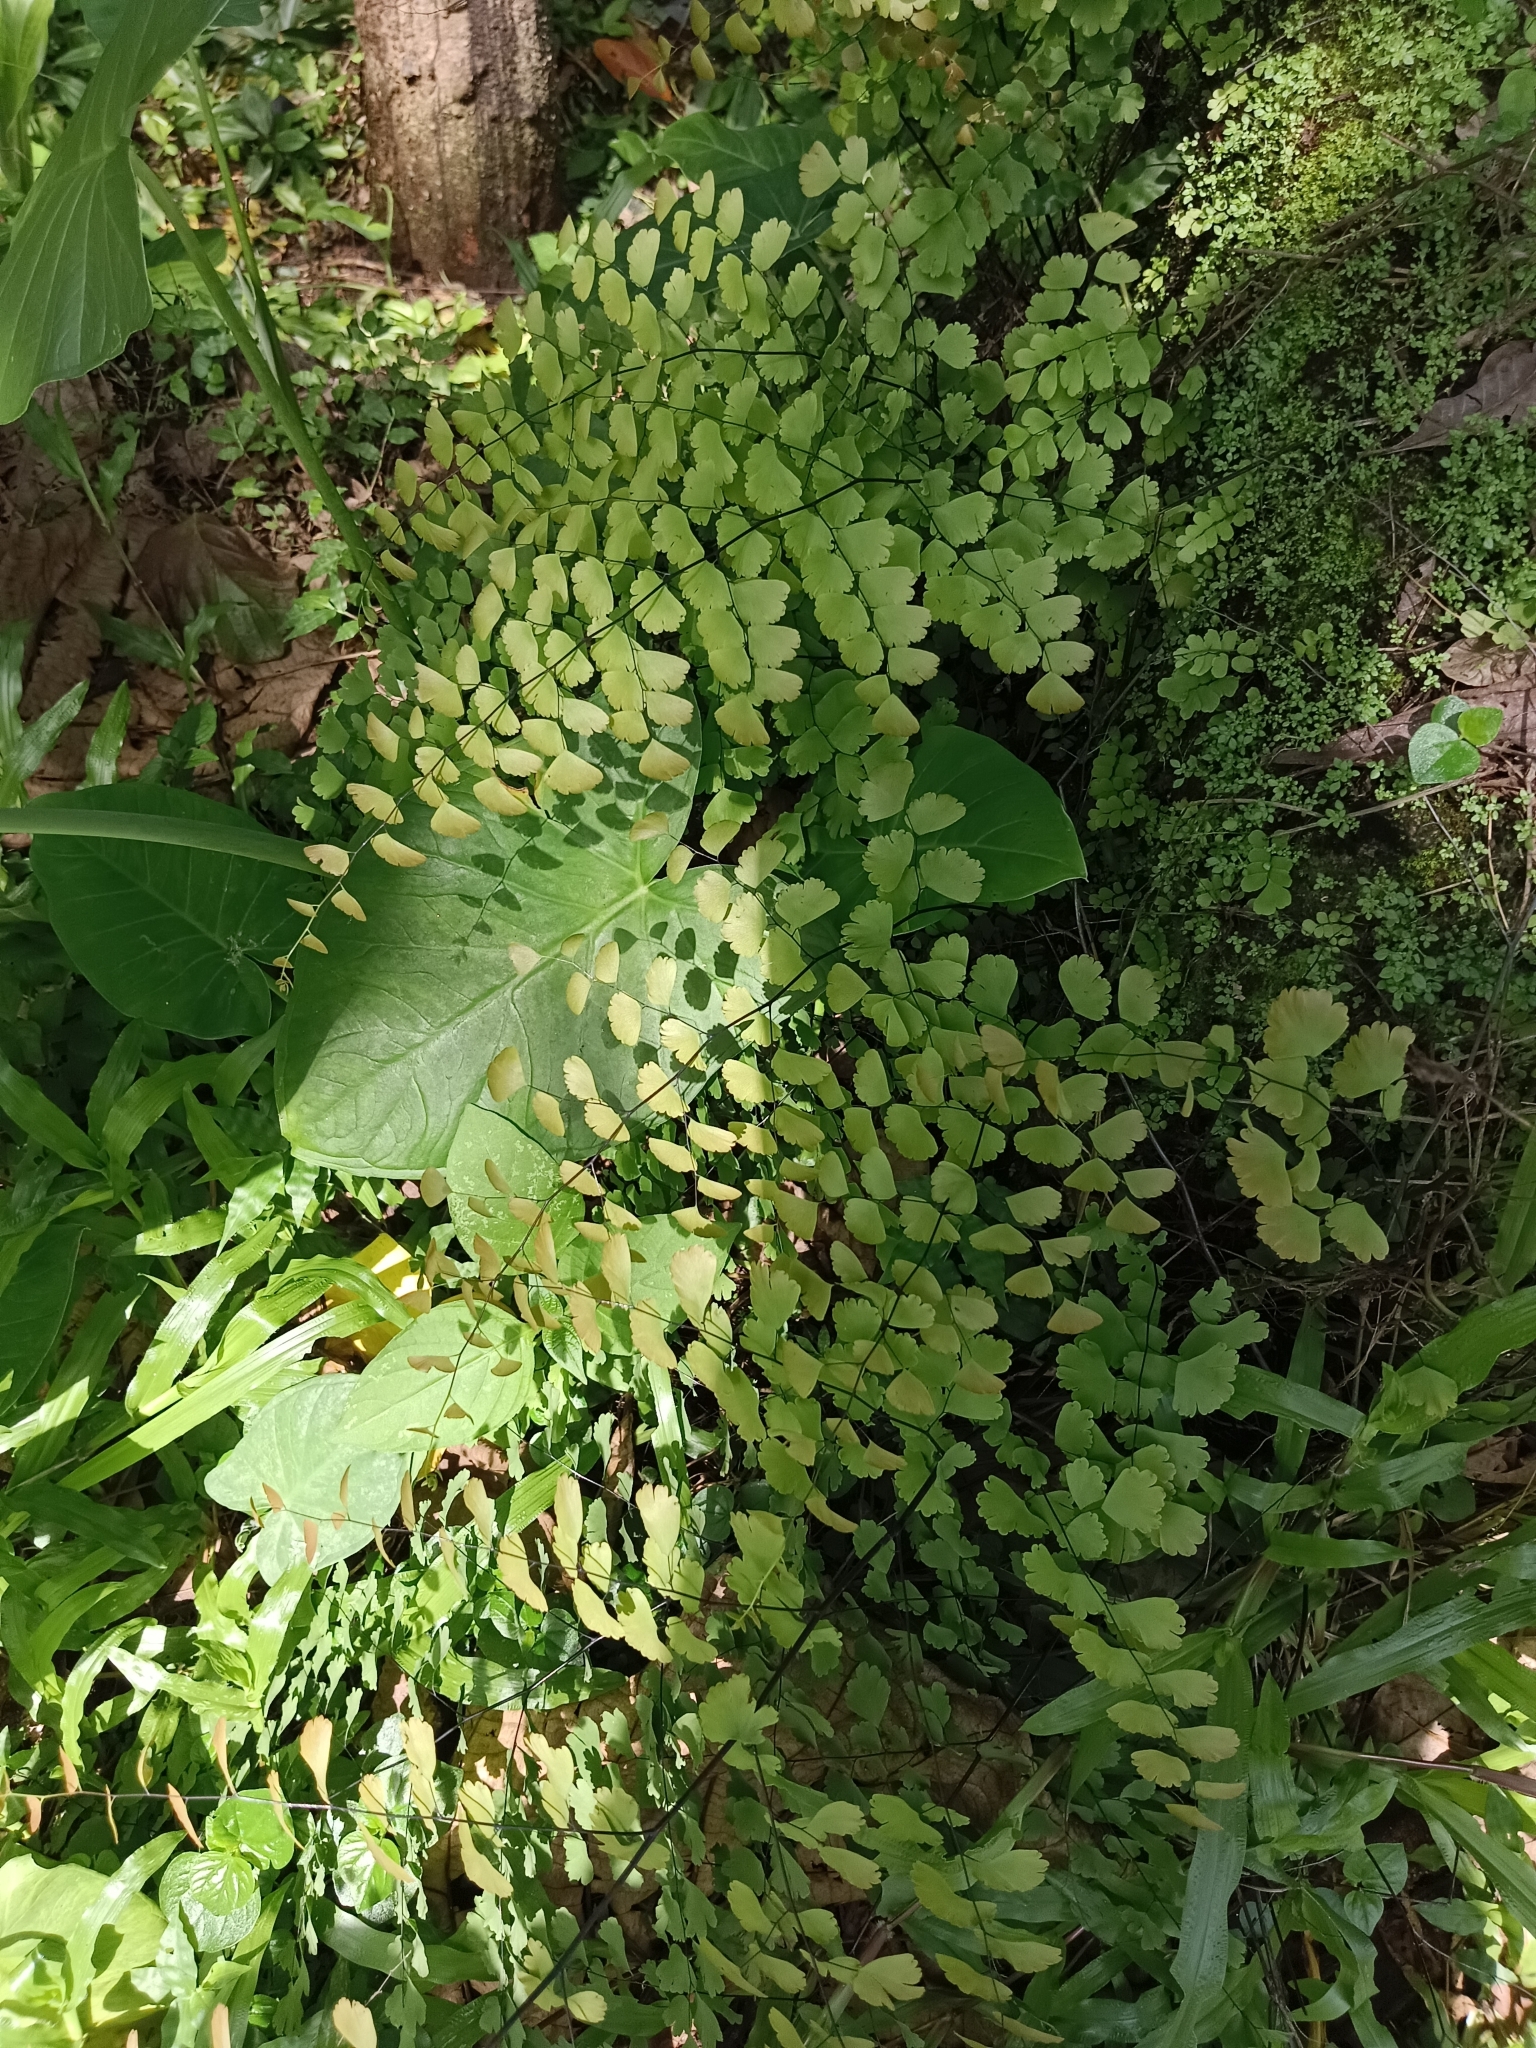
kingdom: Plantae
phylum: Tracheophyta
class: Polypodiopsida
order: Polypodiales
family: Pteridaceae
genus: Adiantum
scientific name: Adiantum concinnum
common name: Brittle maidenhair fern
